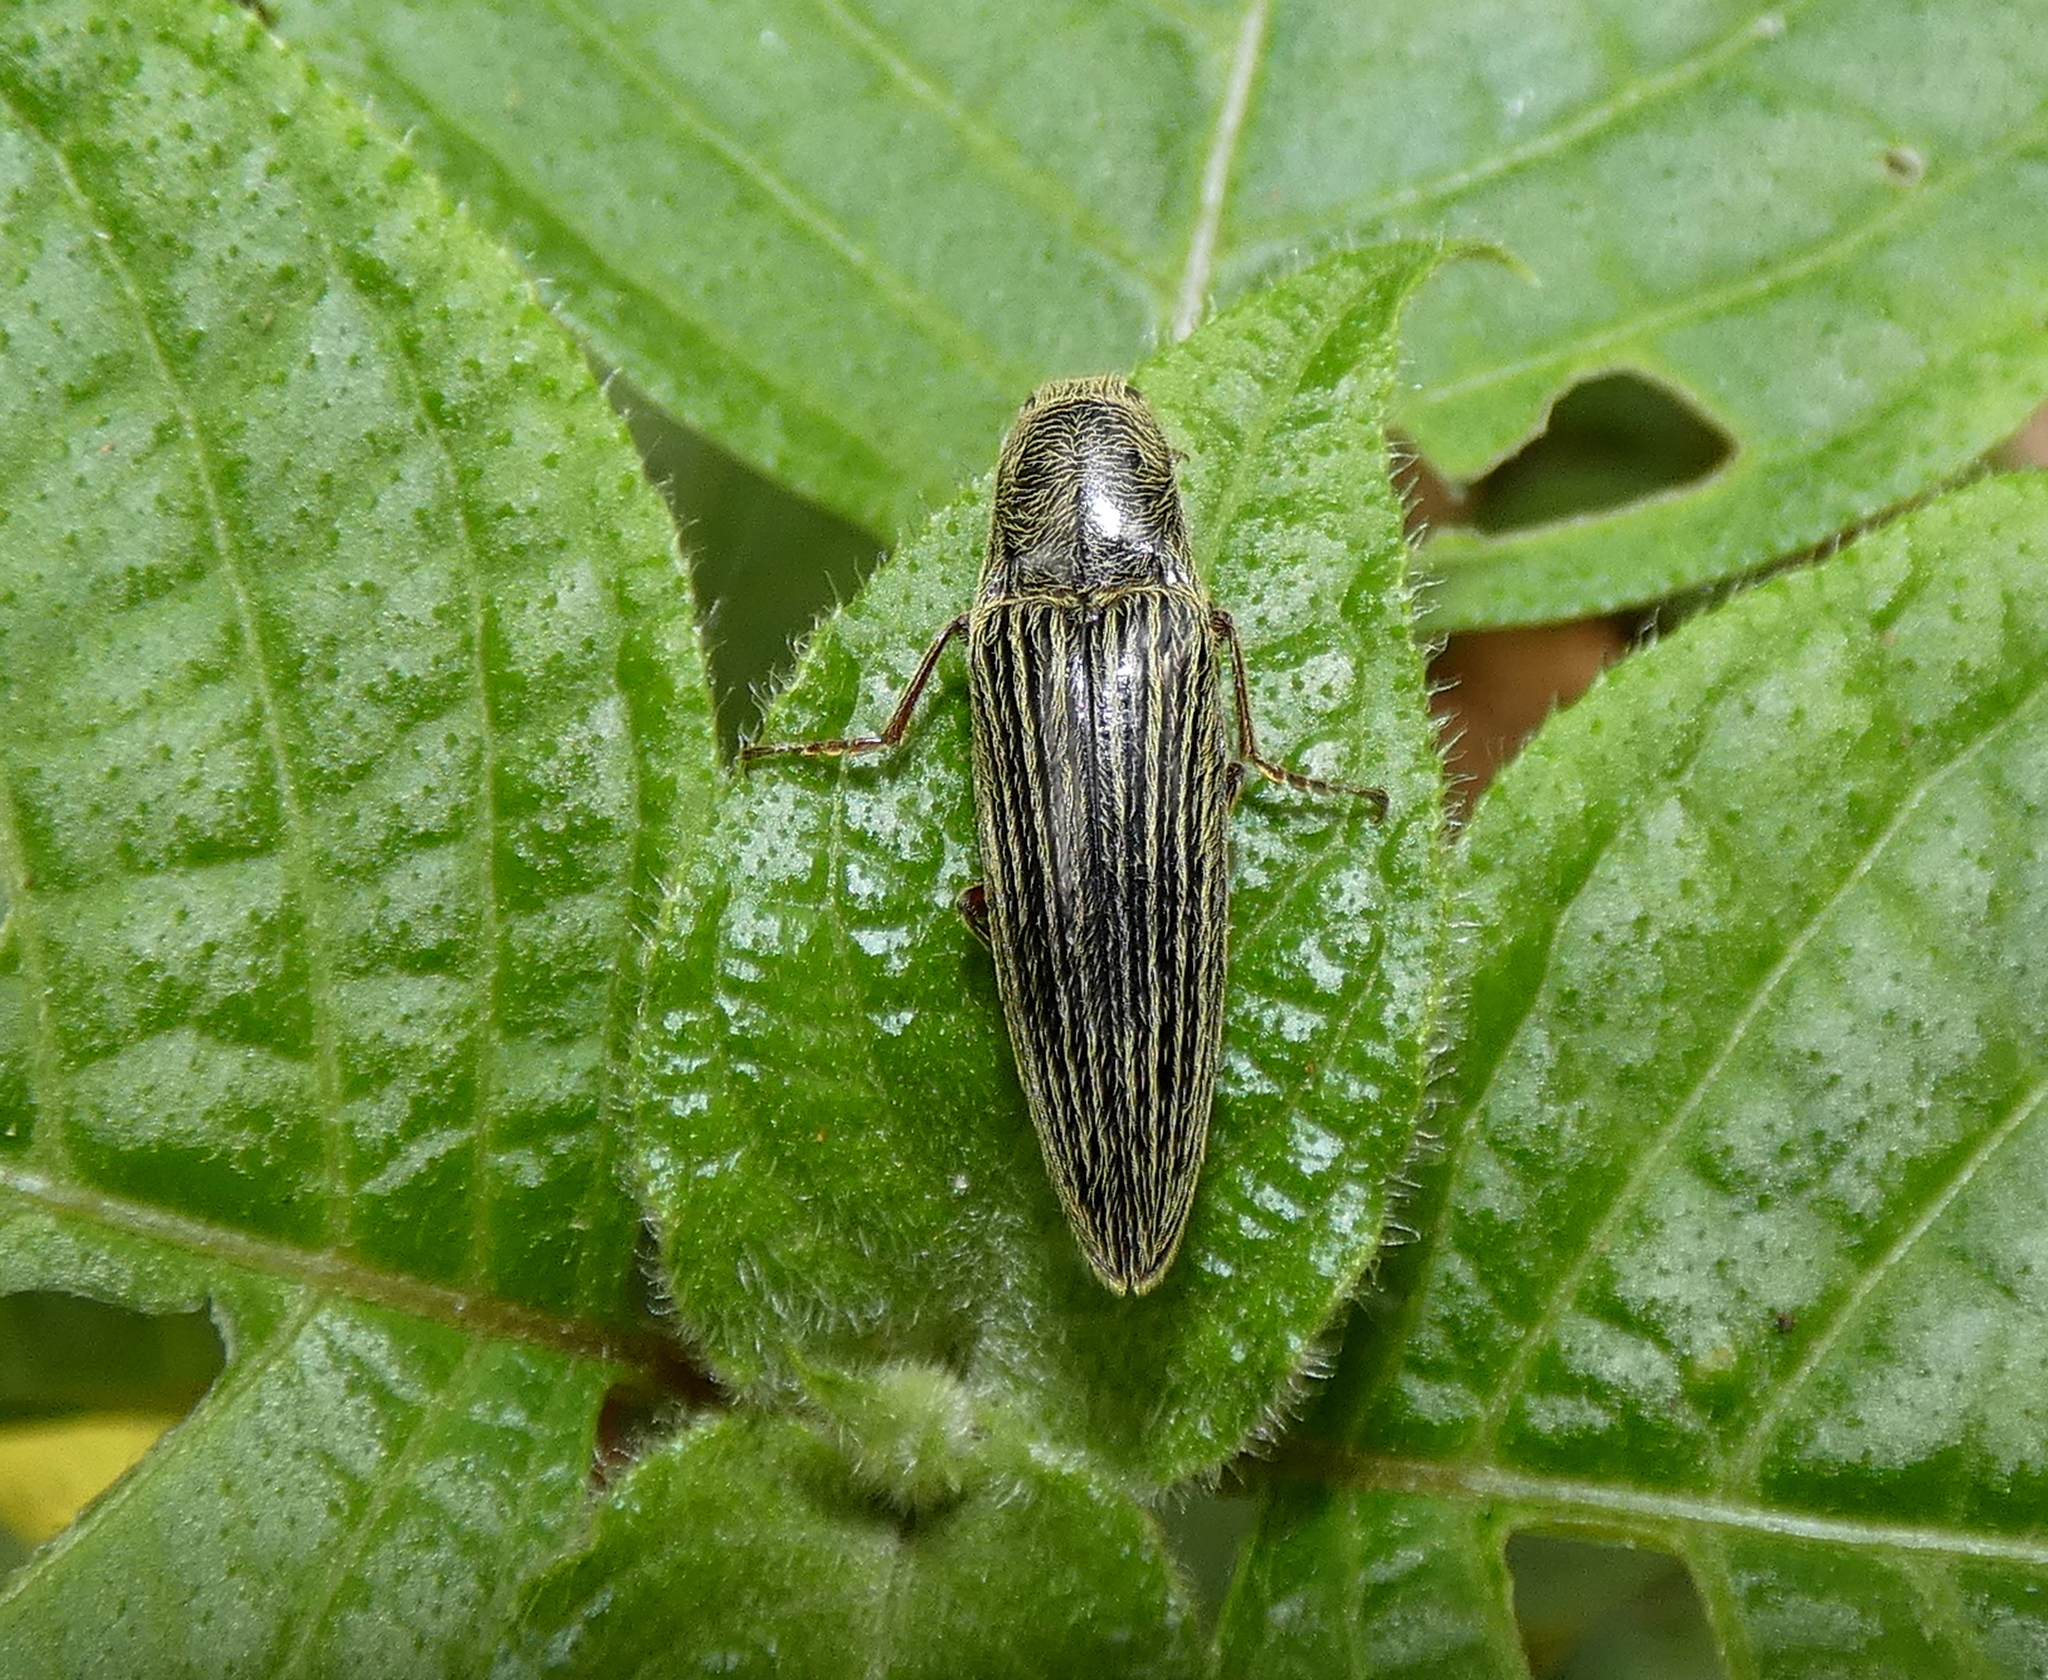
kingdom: Animalia
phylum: Arthropoda
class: Insecta
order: Coleoptera
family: Elateridae
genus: Melanotus
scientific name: Melanotus staudingeri
